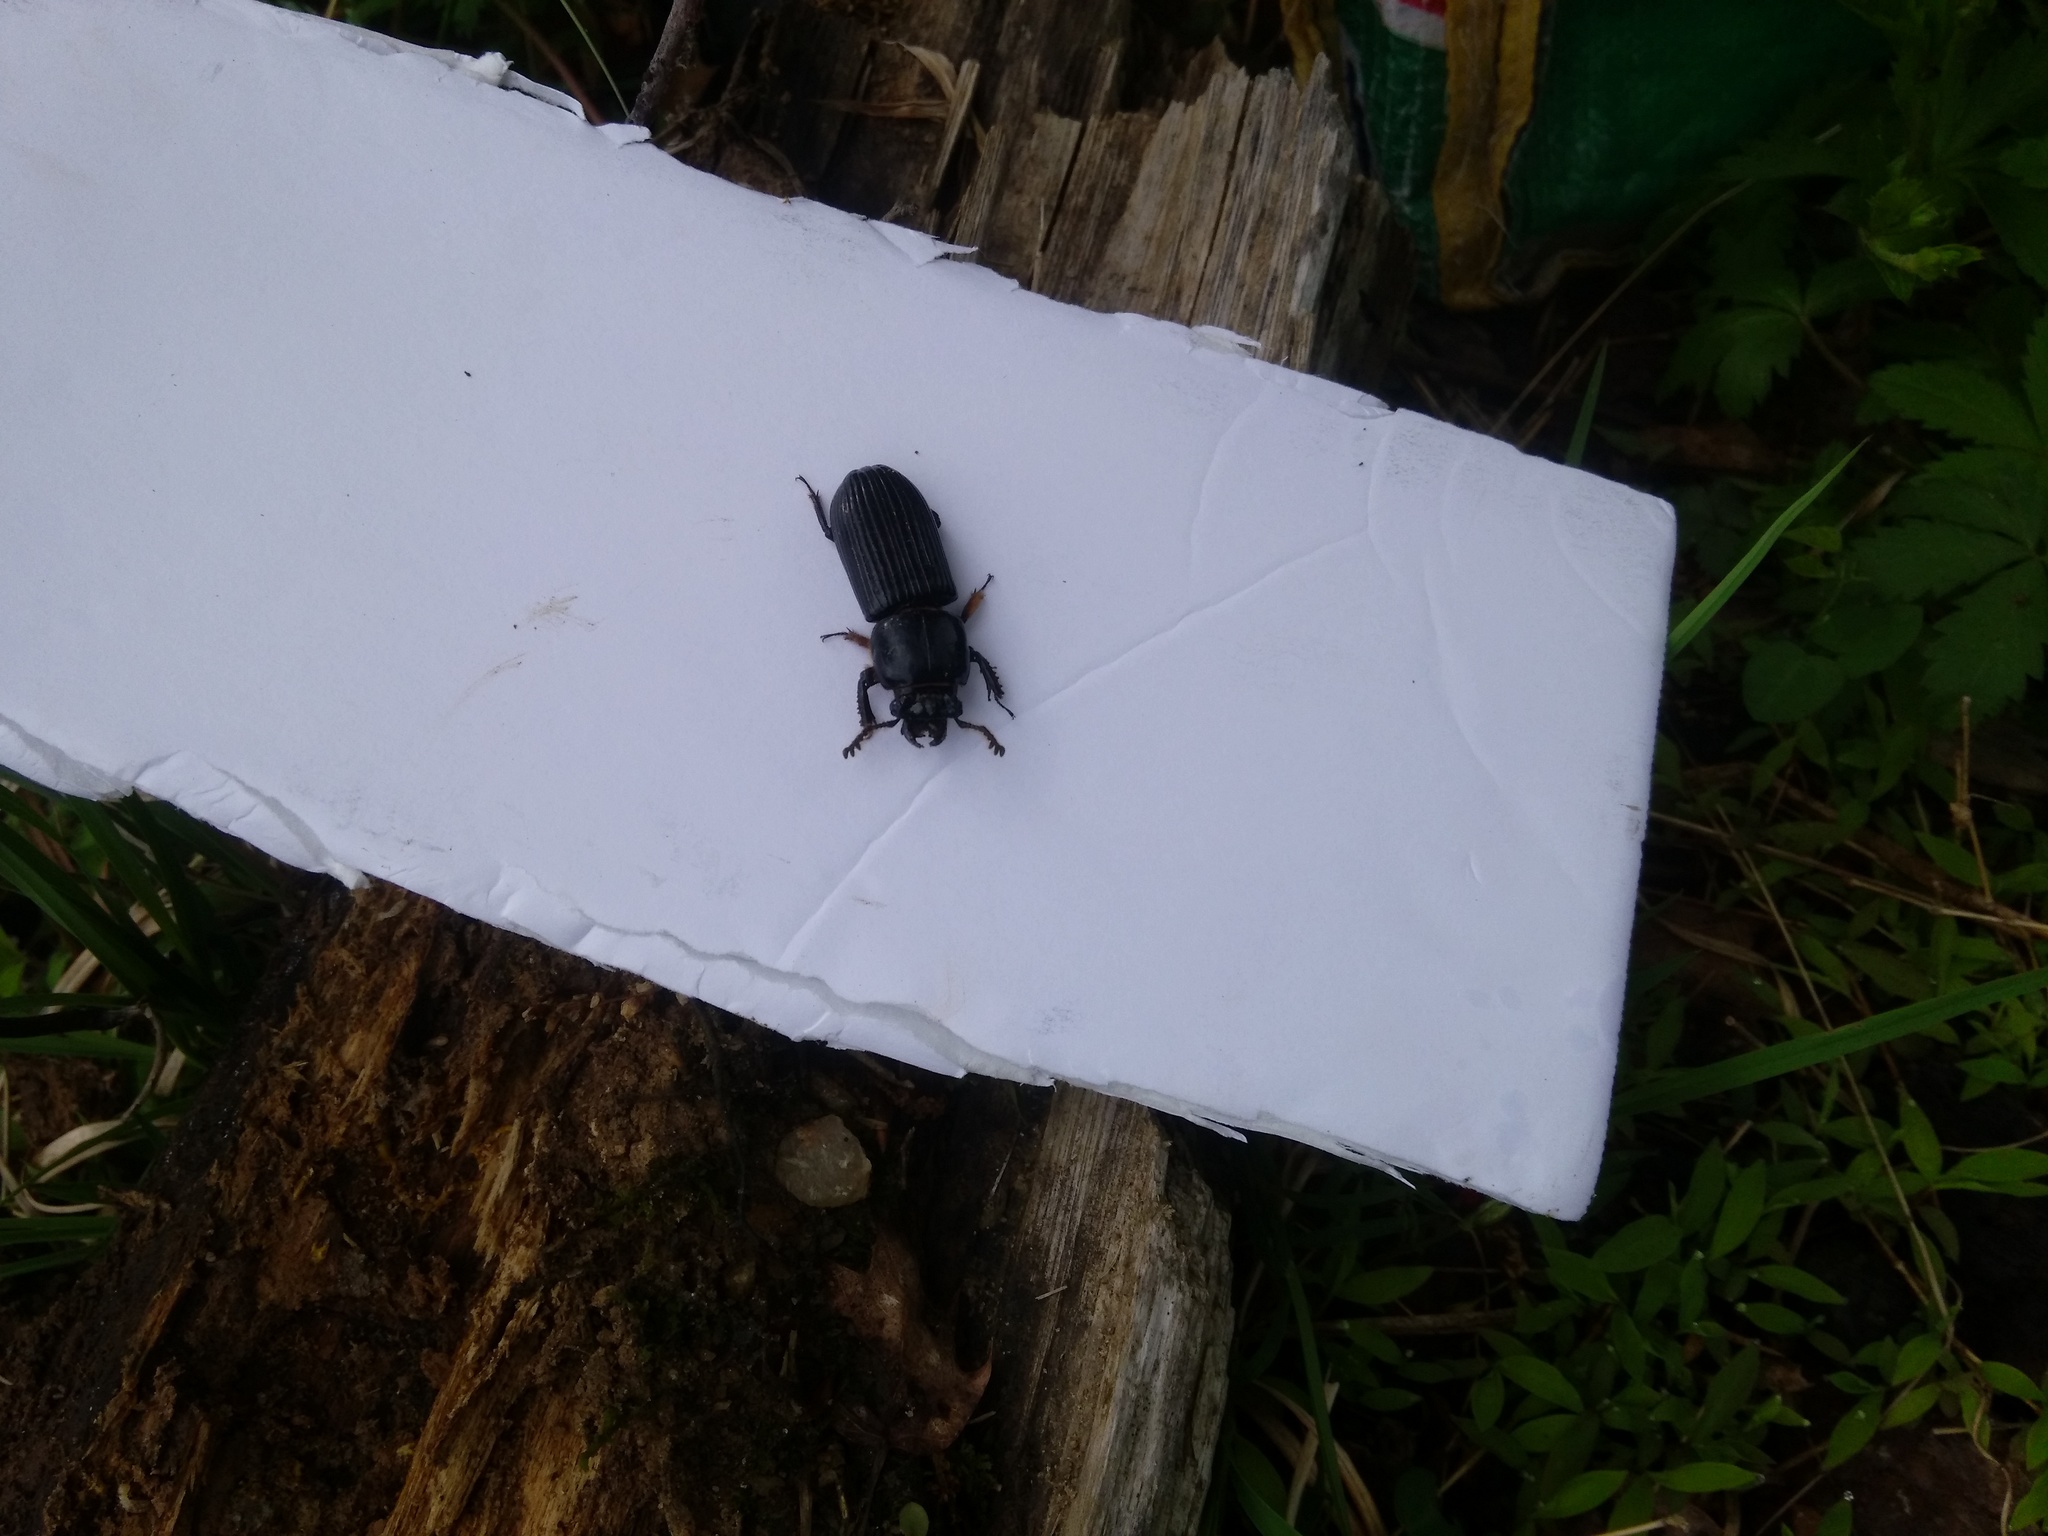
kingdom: Animalia
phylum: Arthropoda
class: Insecta
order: Coleoptera
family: Passalidae
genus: Odontotaenius
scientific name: Odontotaenius disjunctus
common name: Patent leather beetle
